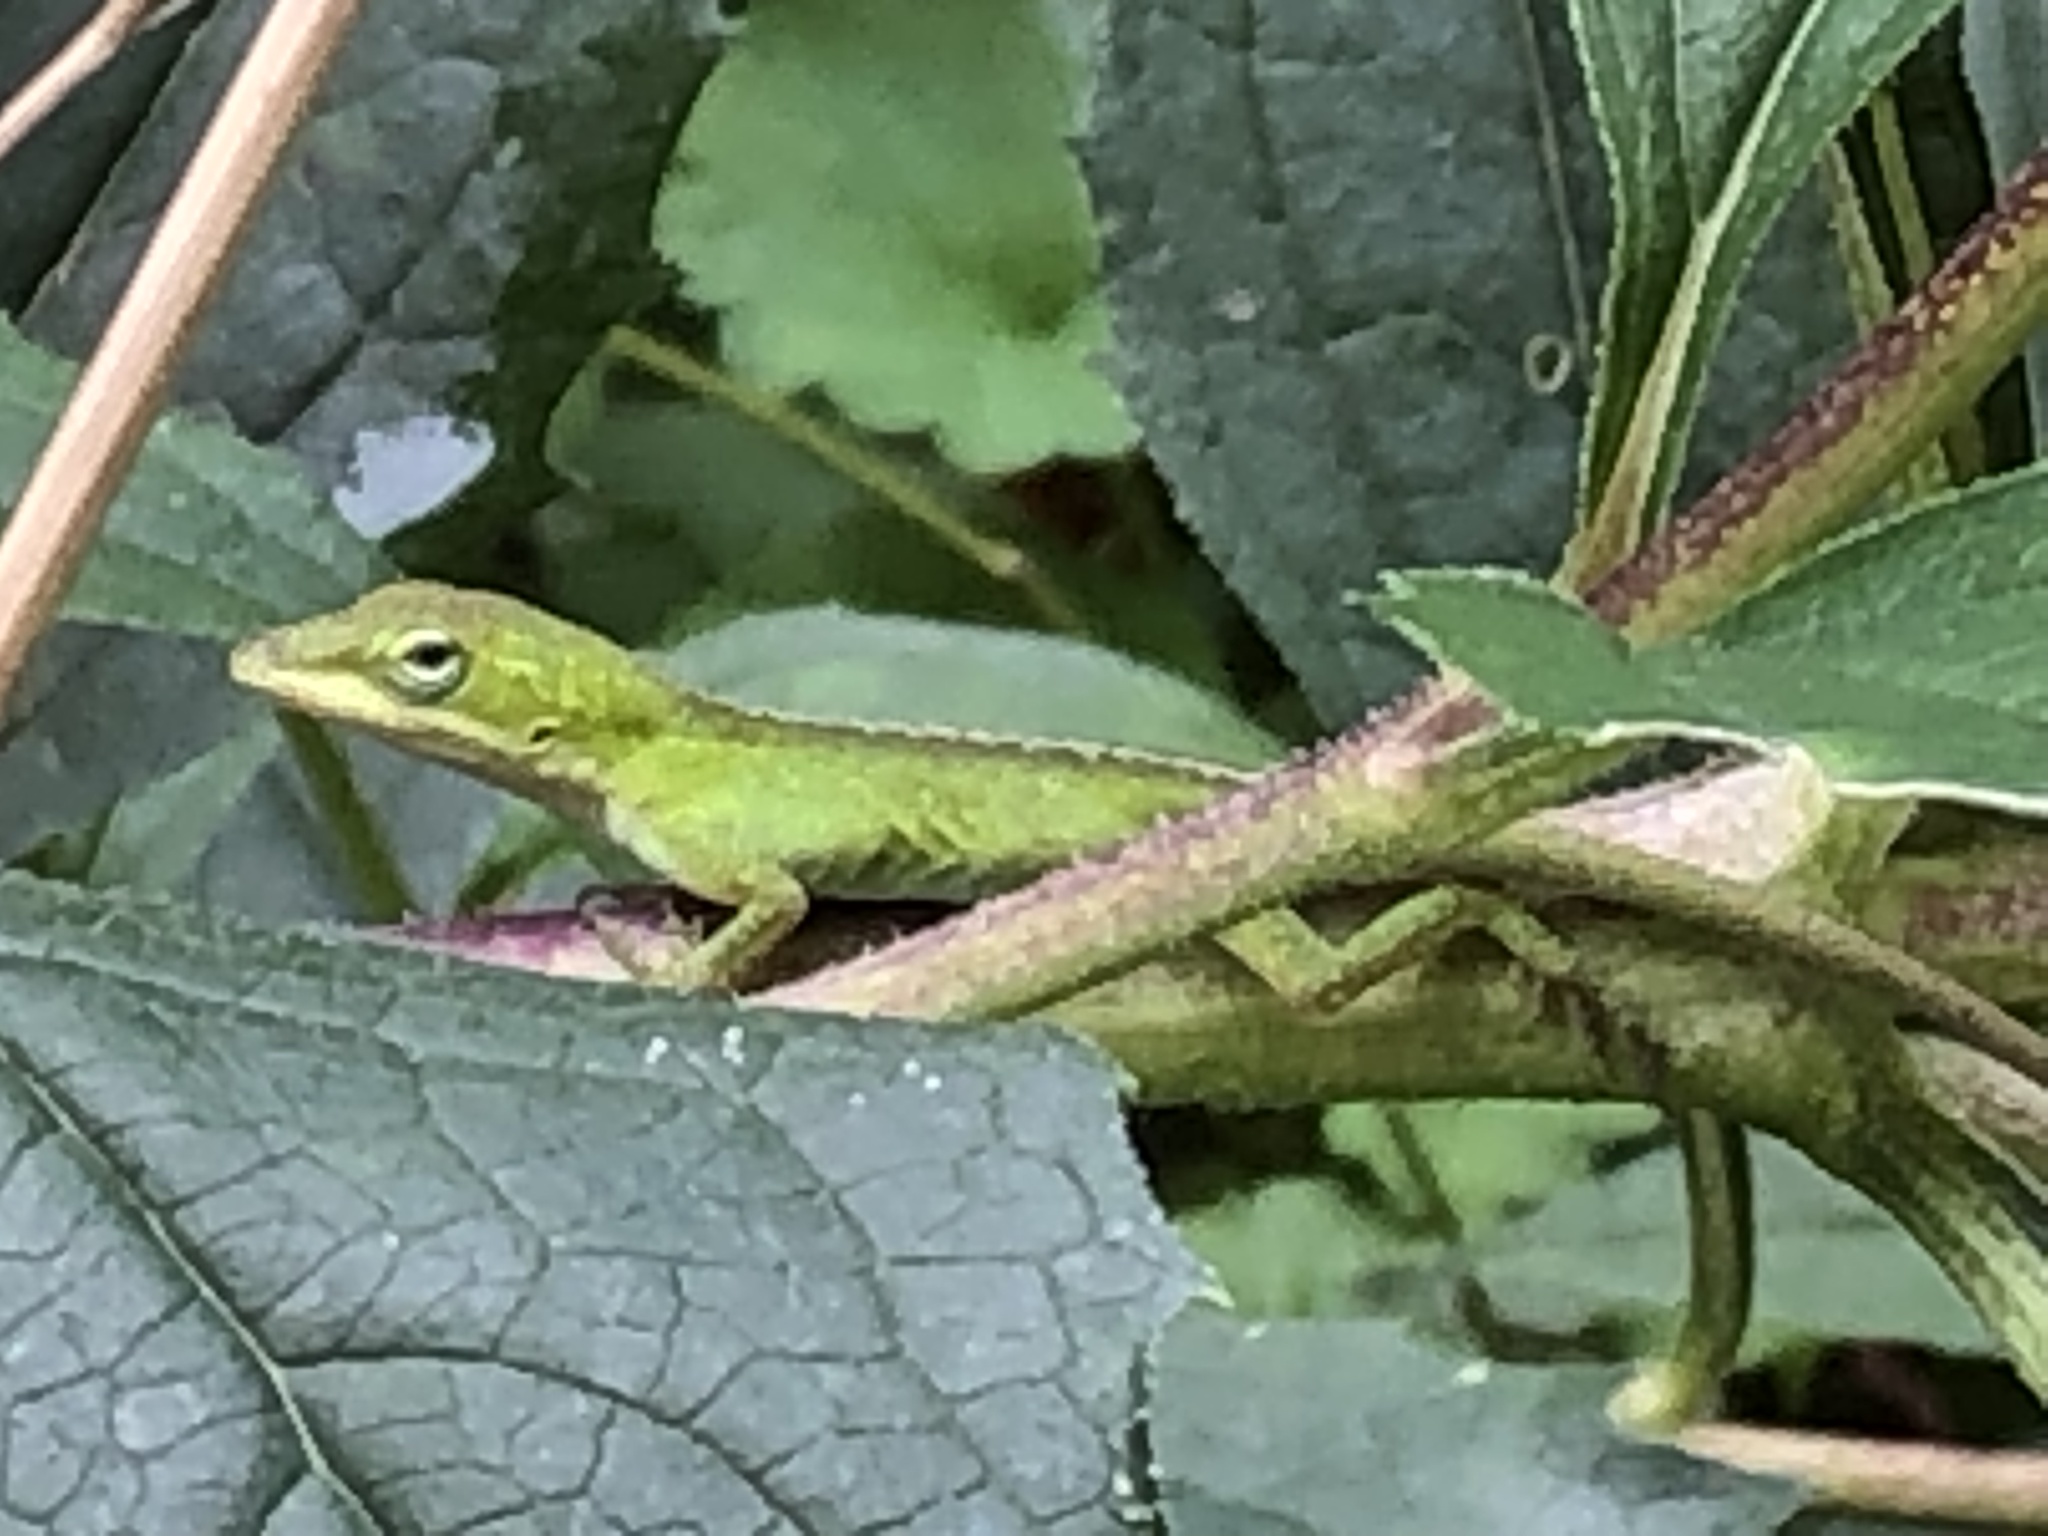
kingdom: Animalia
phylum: Chordata
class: Squamata
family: Dactyloidae
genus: Anolis
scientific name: Anolis carolinensis
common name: Green anole
